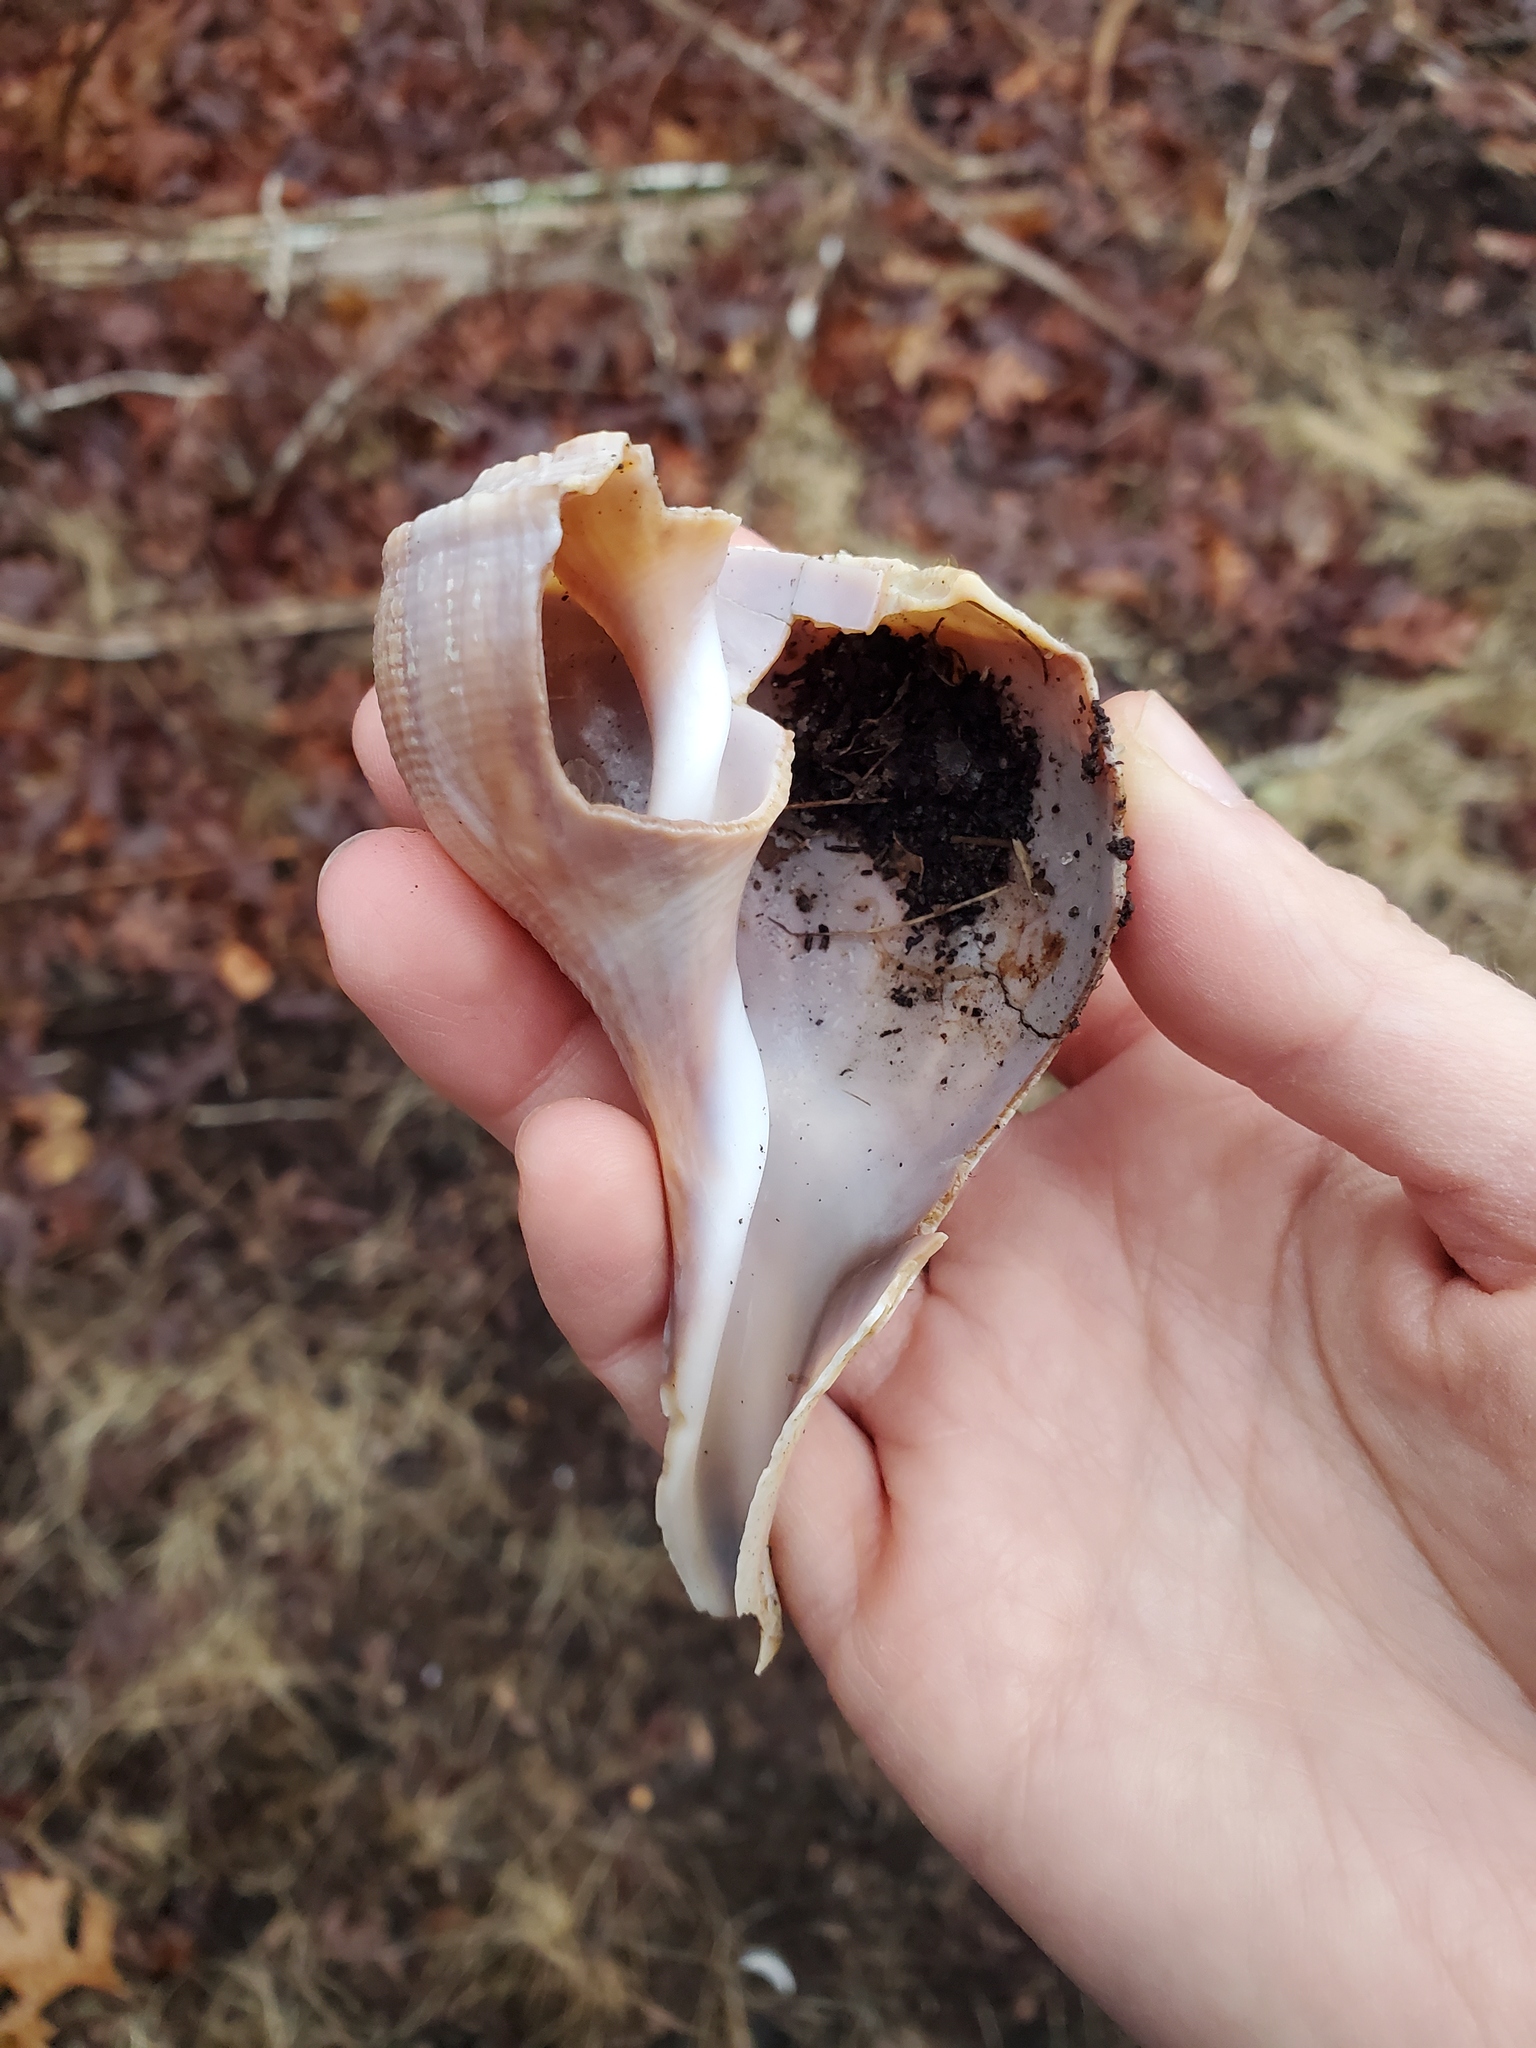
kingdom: Animalia
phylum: Mollusca
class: Gastropoda
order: Neogastropoda
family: Busyconidae
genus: Busycotypus
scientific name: Busycotypus canaliculatus
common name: Channeled whelk
